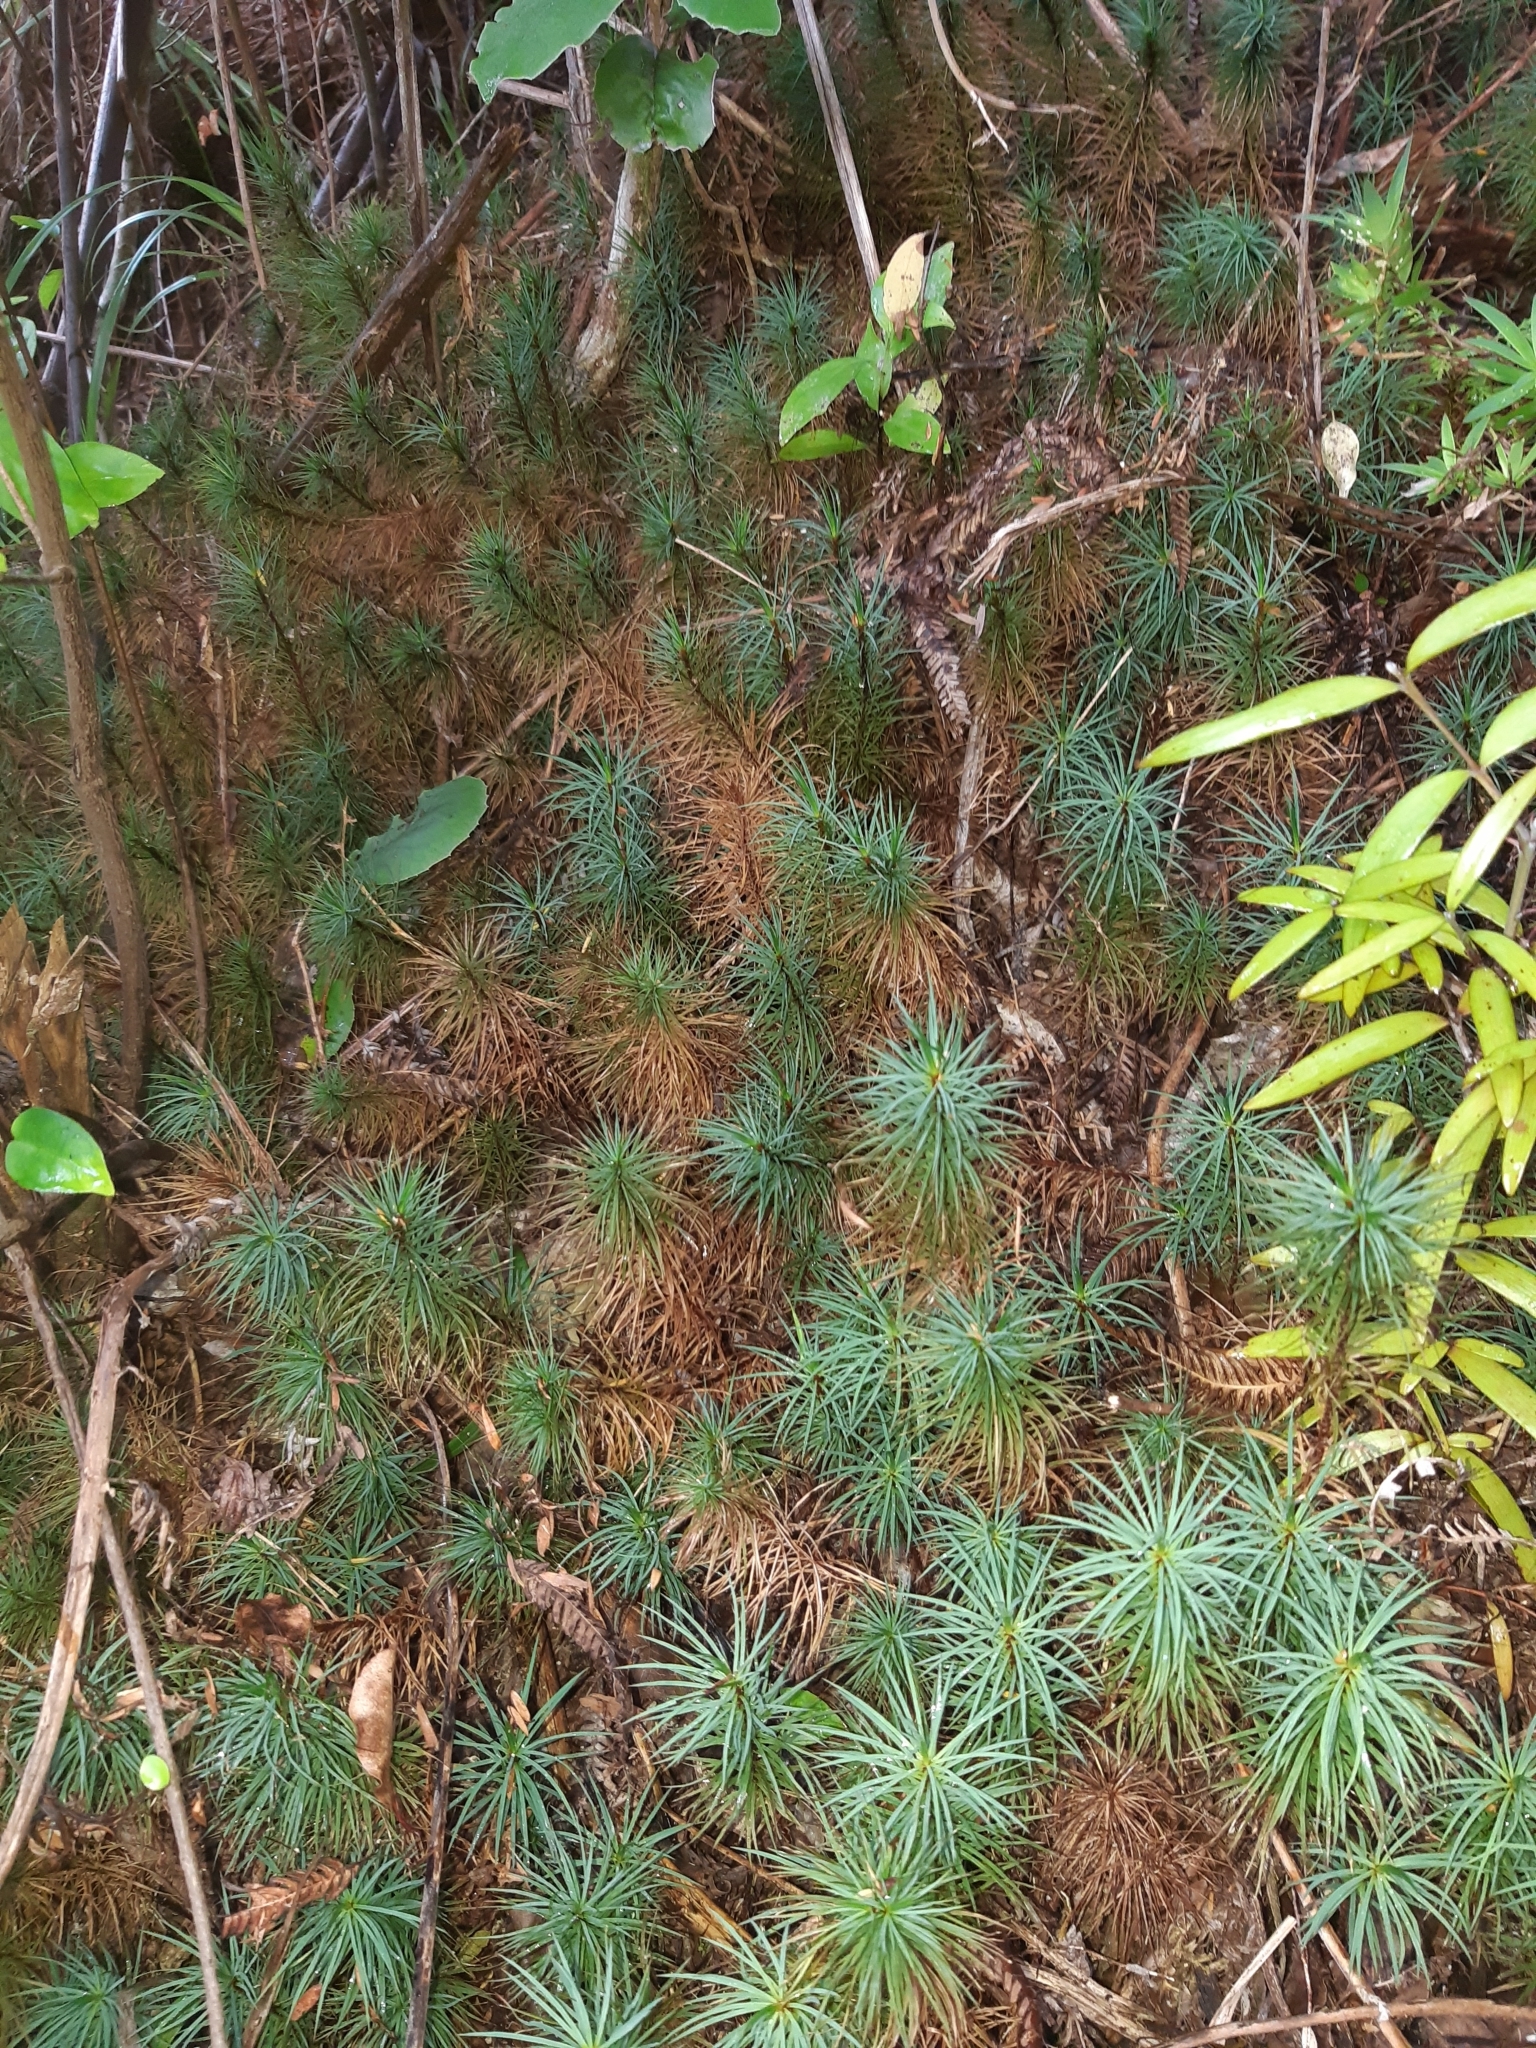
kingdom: Plantae
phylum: Bryophyta
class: Polytrichopsida
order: Polytrichales
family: Polytrichaceae
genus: Dawsonia
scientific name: Dawsonia superba
